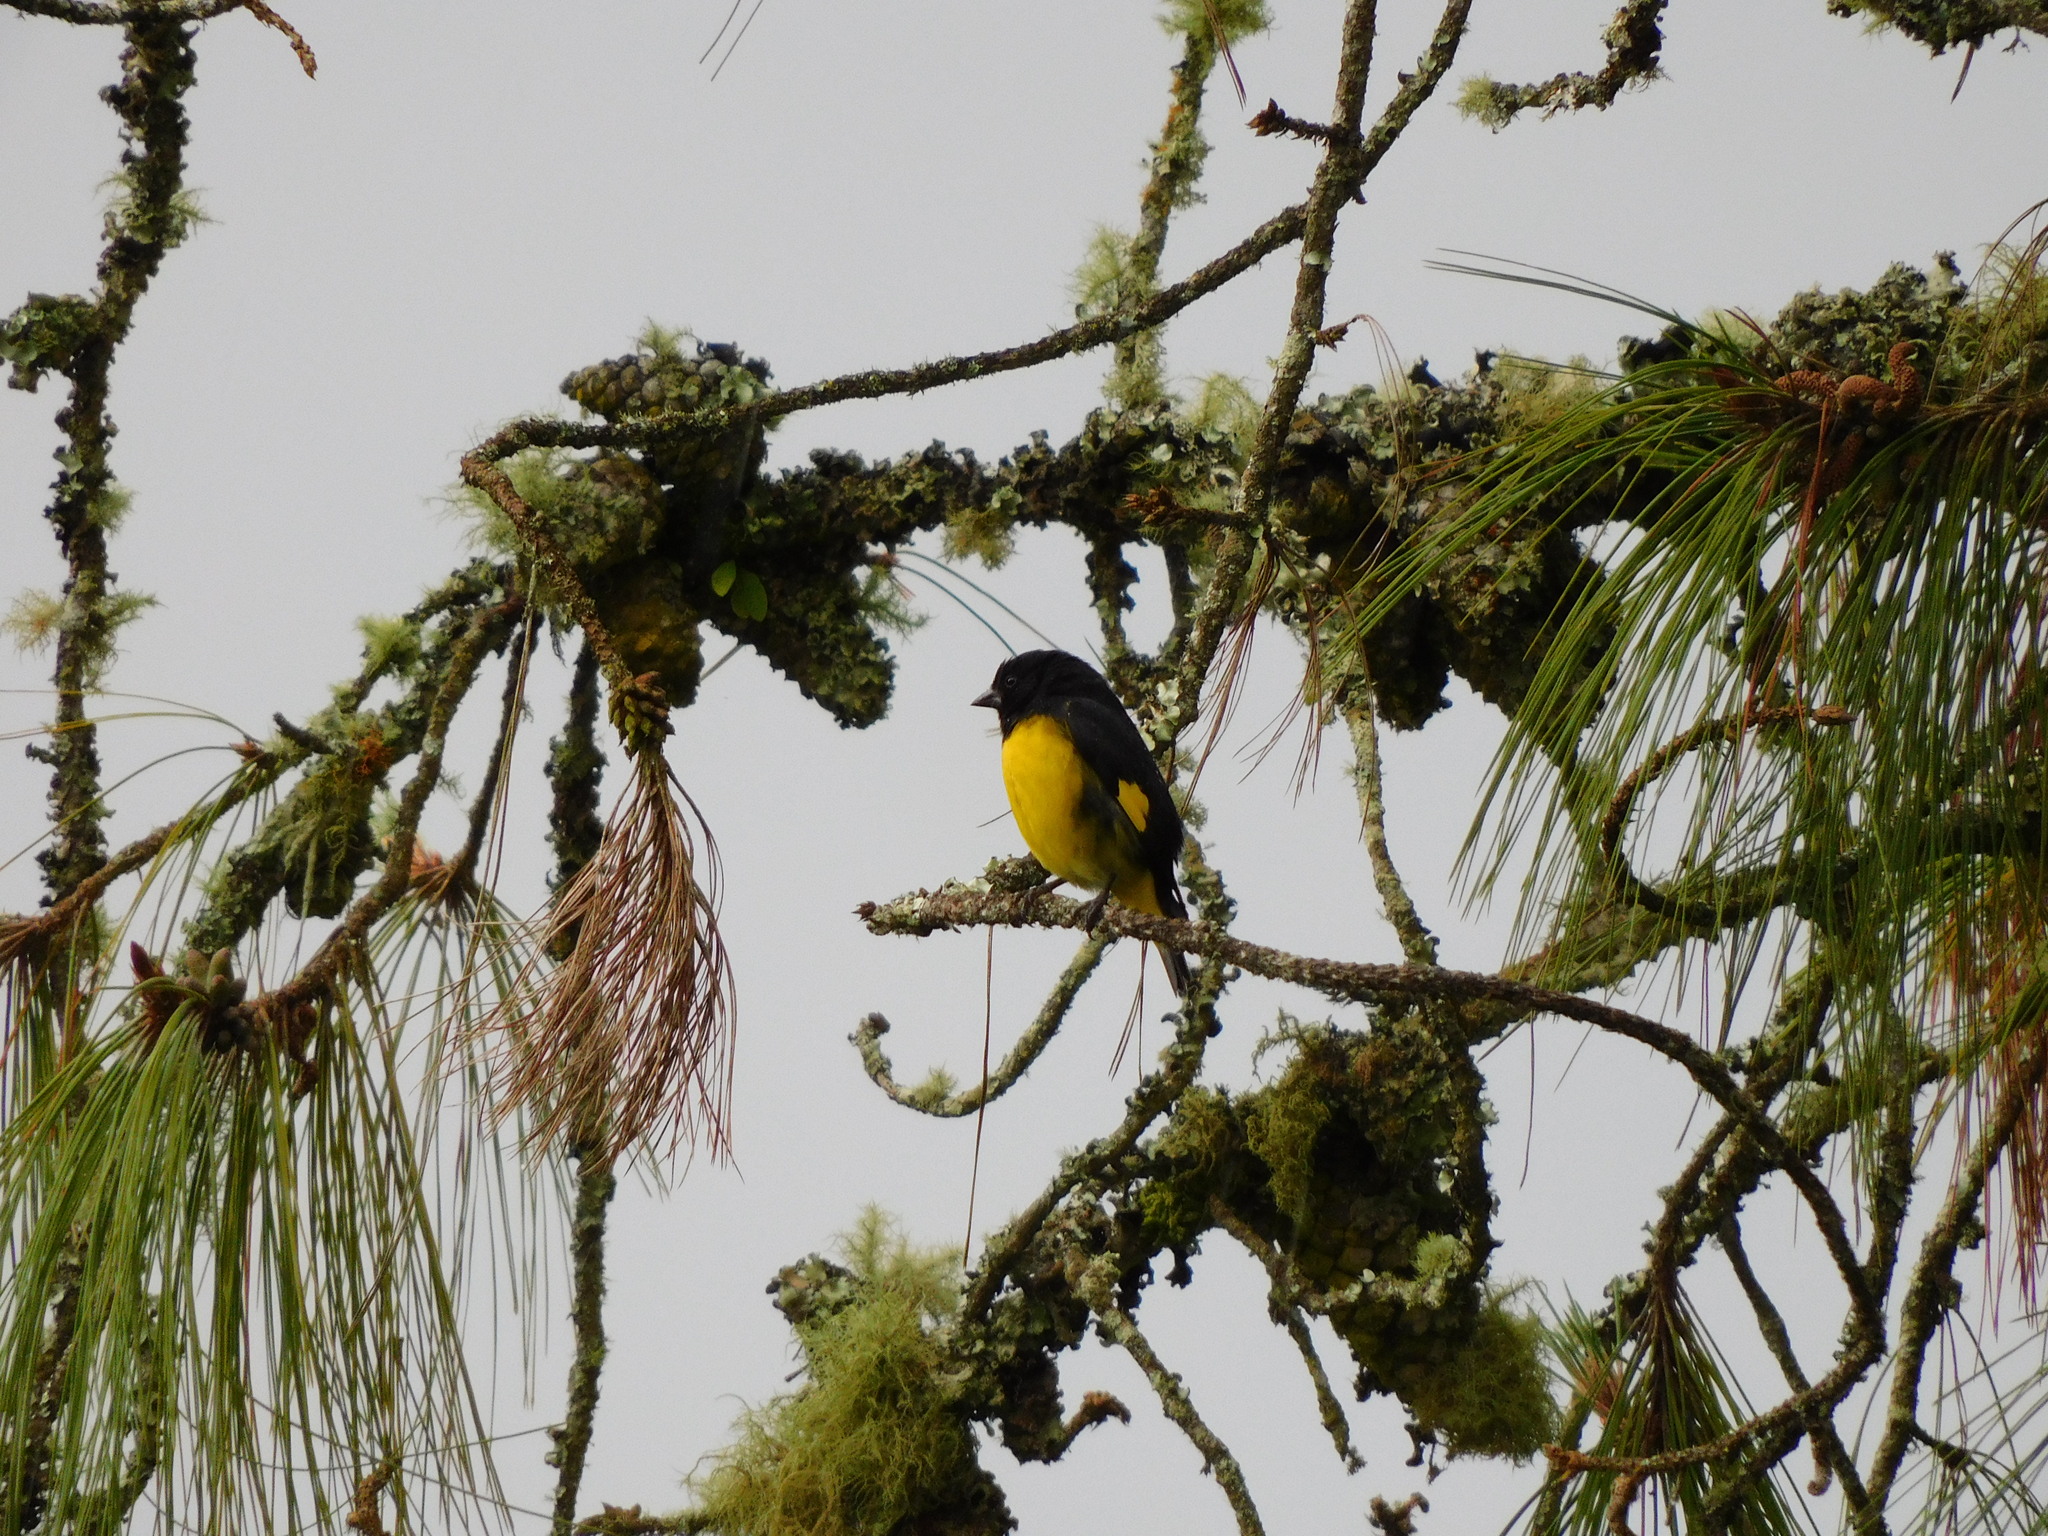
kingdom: Animalia
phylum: Chordata
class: Aves
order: Passeriformes
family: Fringillidae
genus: Spinus
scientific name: Spinus xanthogastrus
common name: Yellow-bellied siskin
